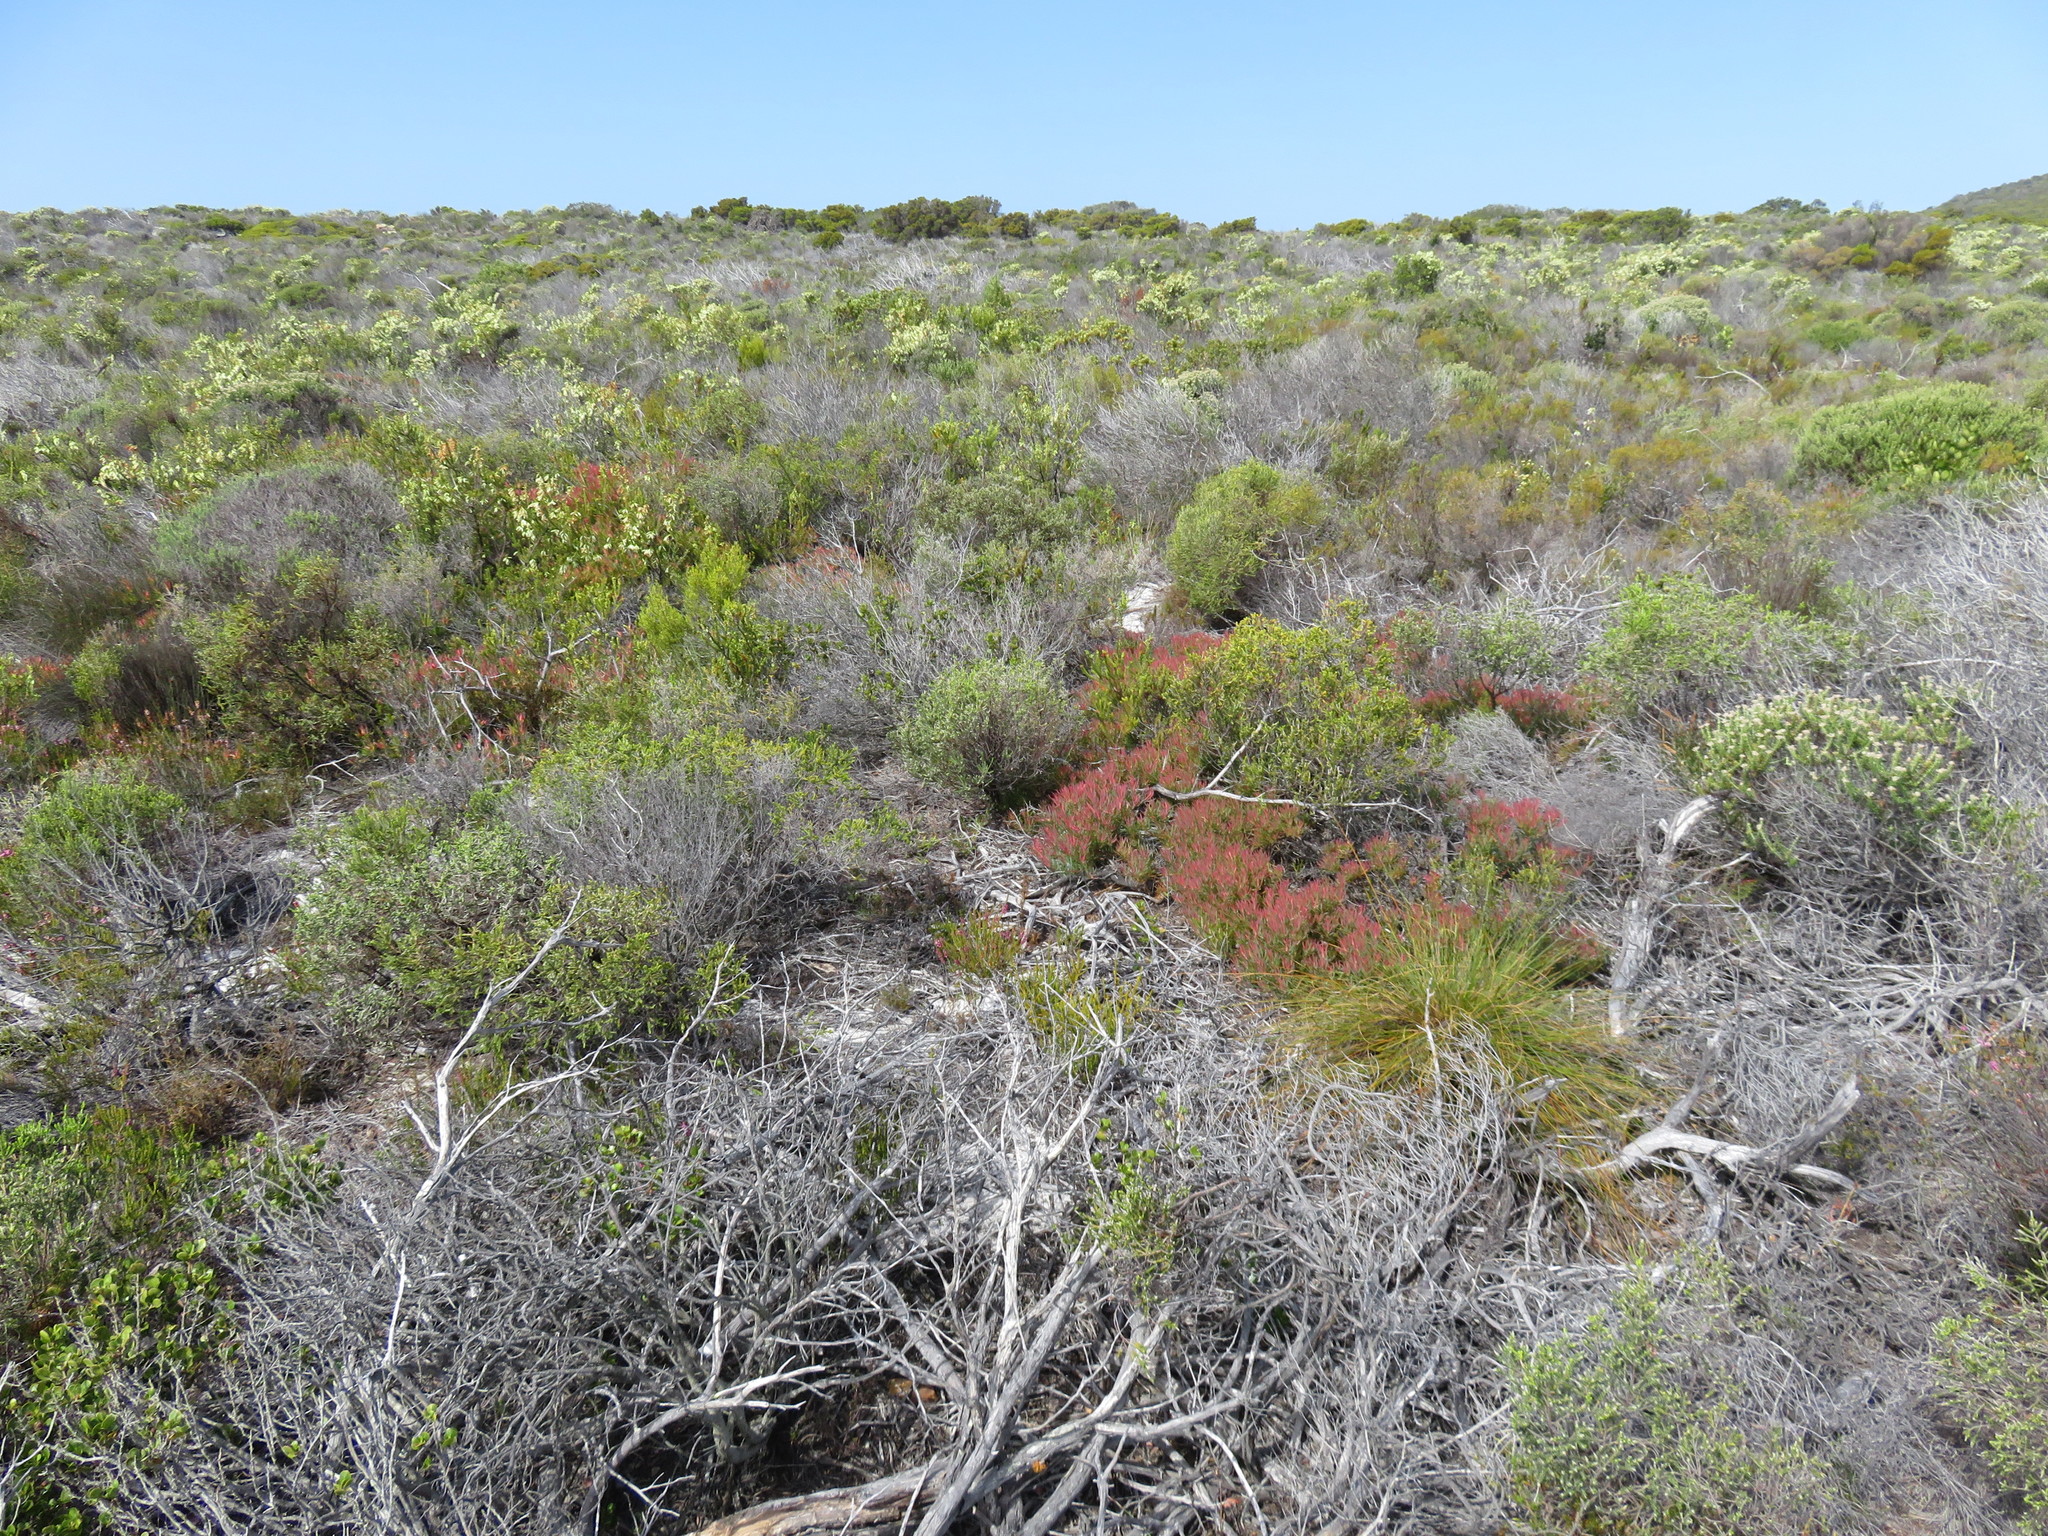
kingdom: Plantae
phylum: Tracheophyta
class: Magnoliopsida
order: Proteales
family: Proteaceae
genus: Leucadendron
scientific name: Leucadendron salignum
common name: Common sunshine conebush
